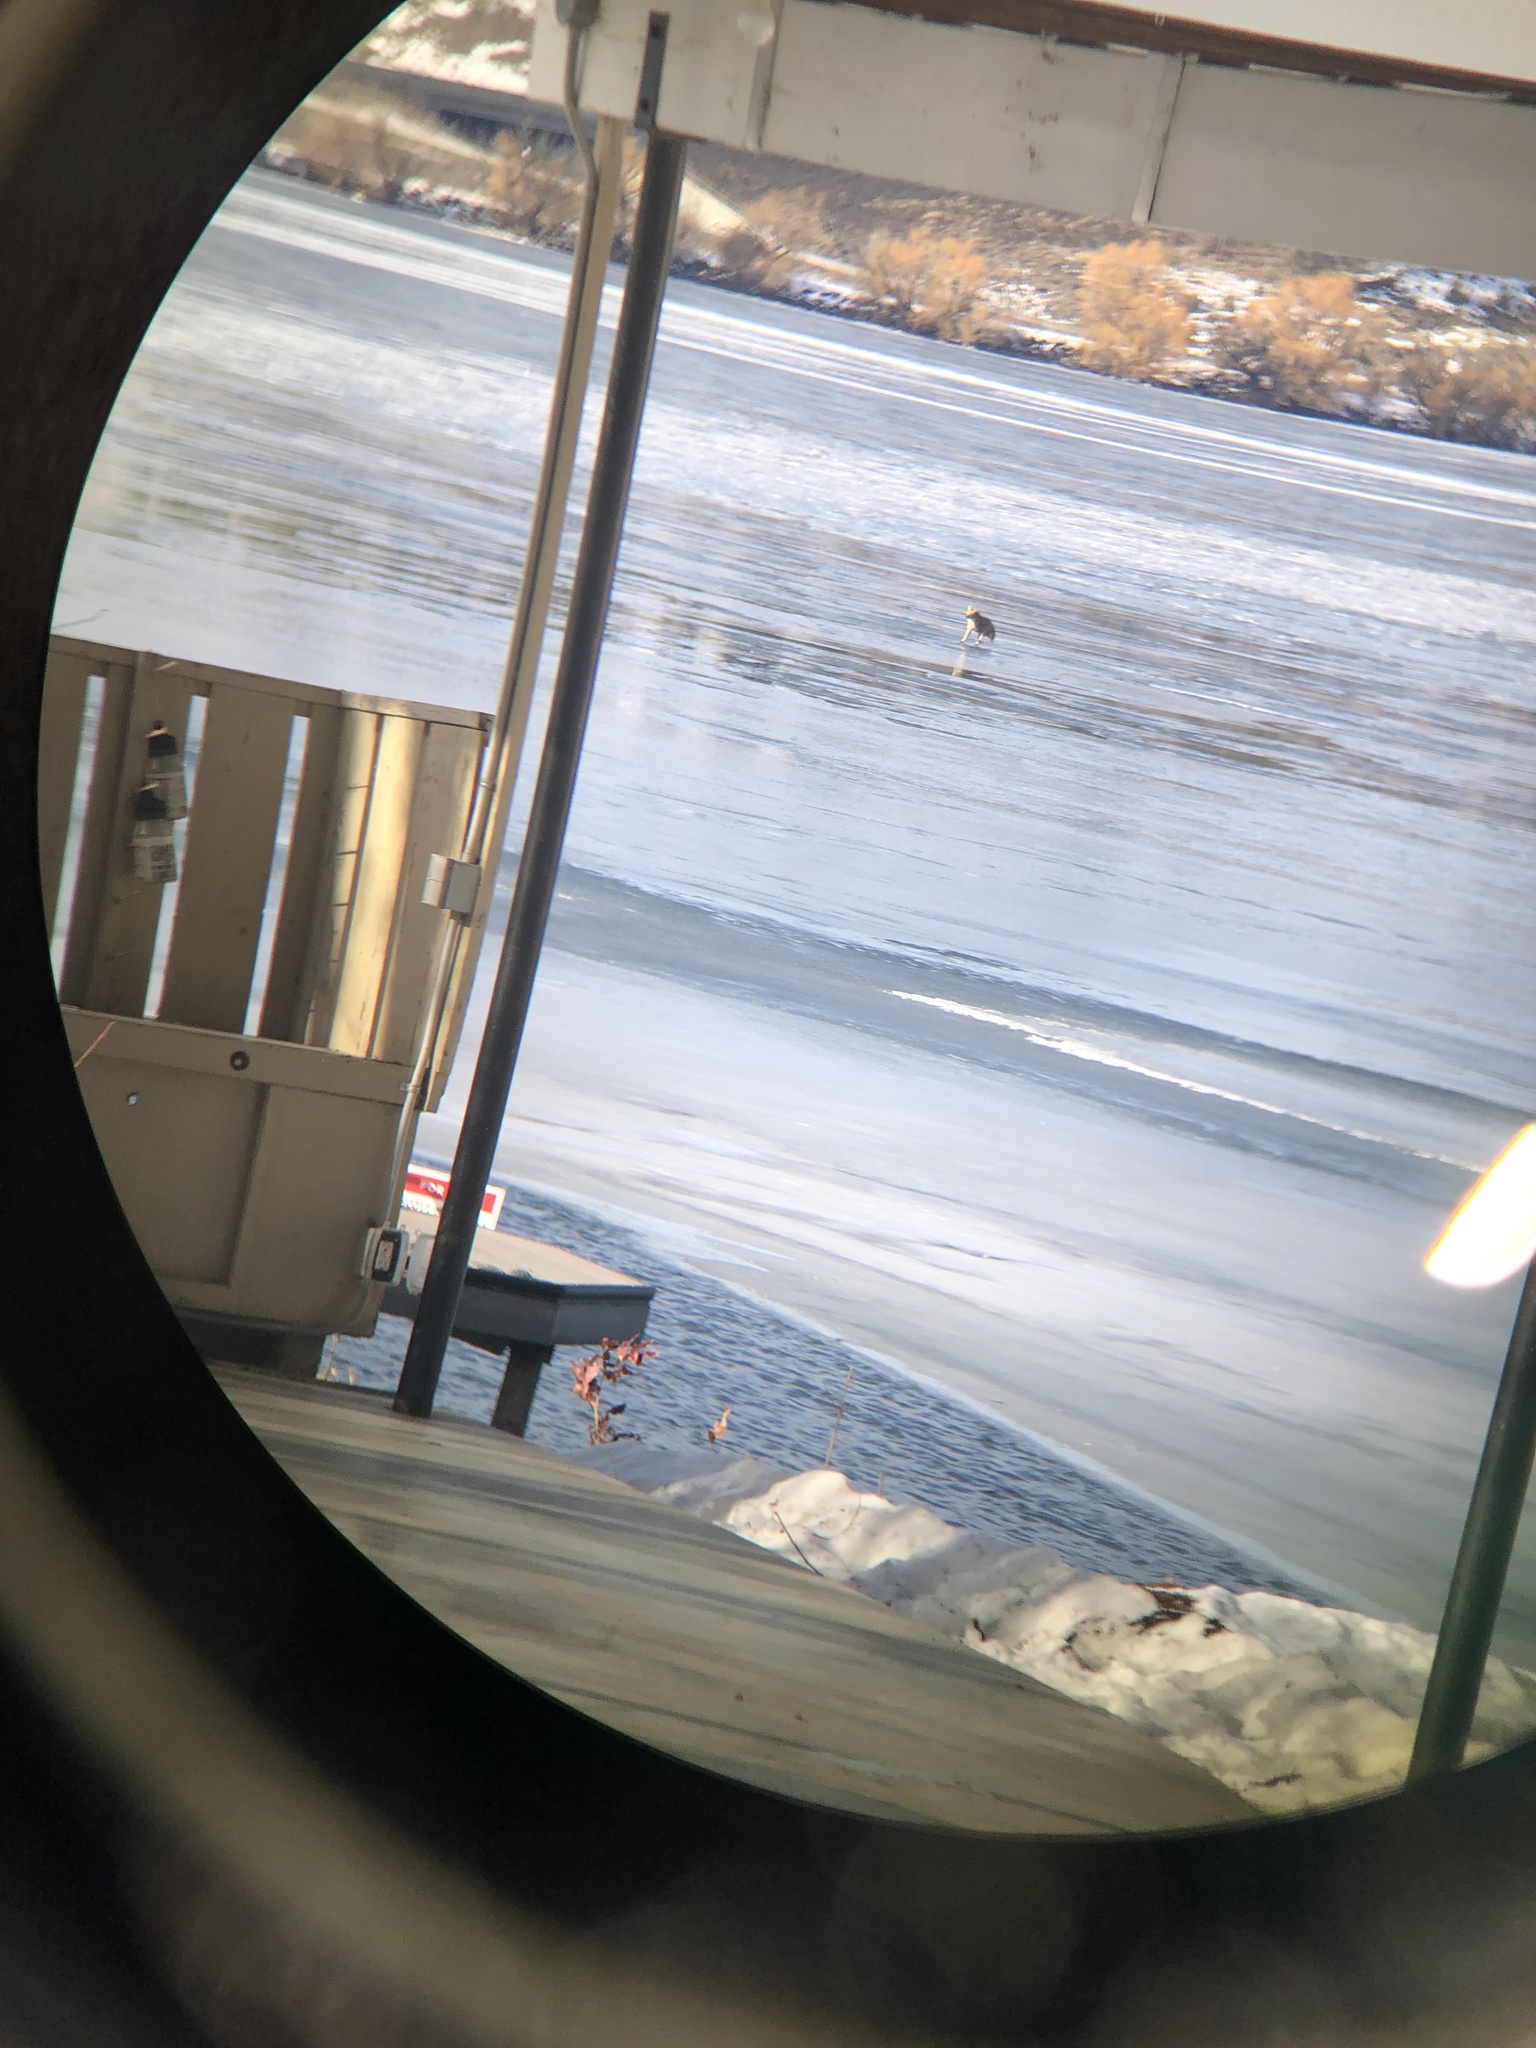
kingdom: Animalia
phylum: Chordata
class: Mammalia
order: Carnivora
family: Canidae
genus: Canis
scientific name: Canis latrans
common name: Coyote
